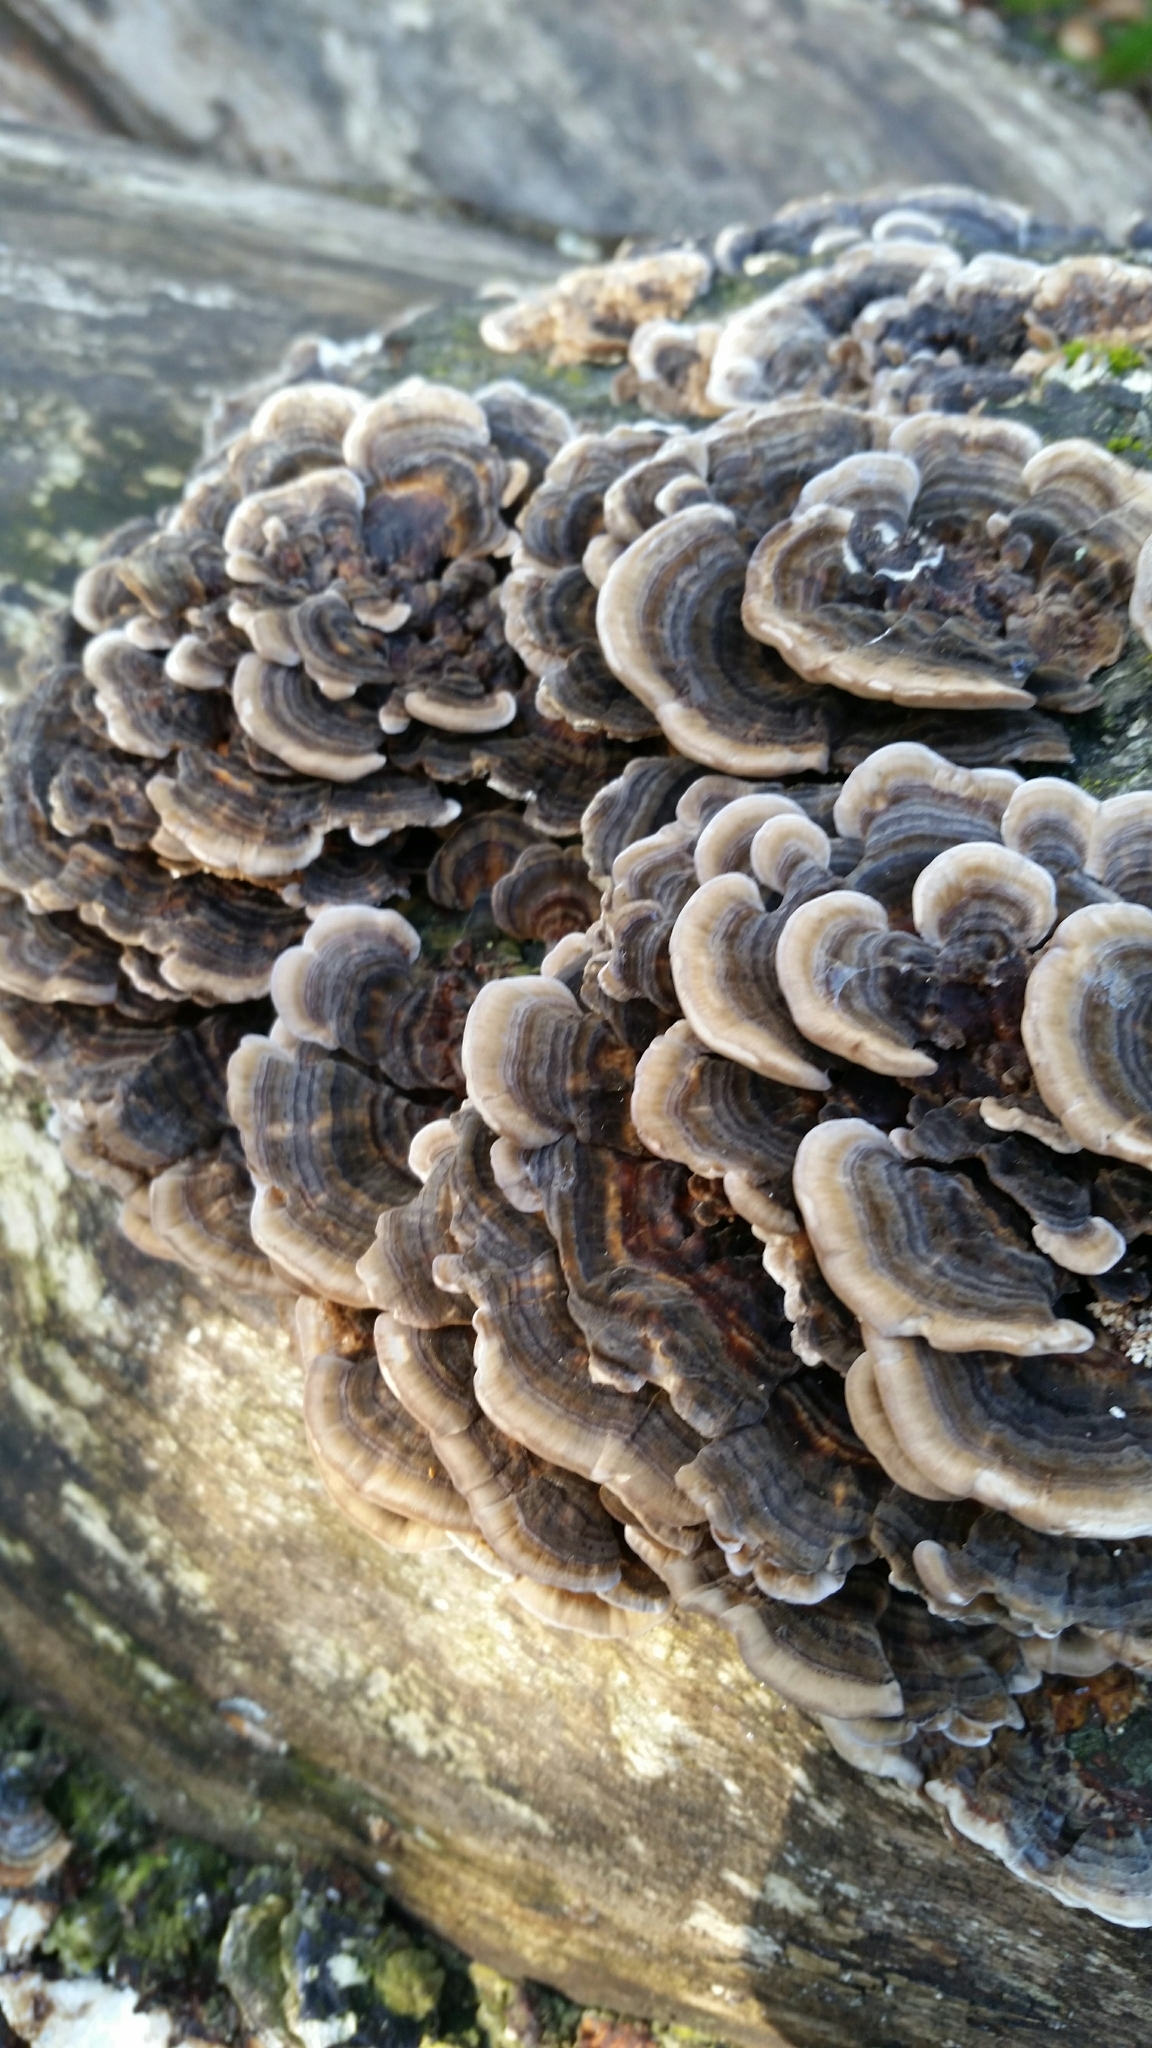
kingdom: Fungi
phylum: Basidiomycota
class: Agaricomycetes
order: Polyporales
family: Polyporaceae
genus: Trametes
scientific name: Trametes versicolor
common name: Turkeytail
